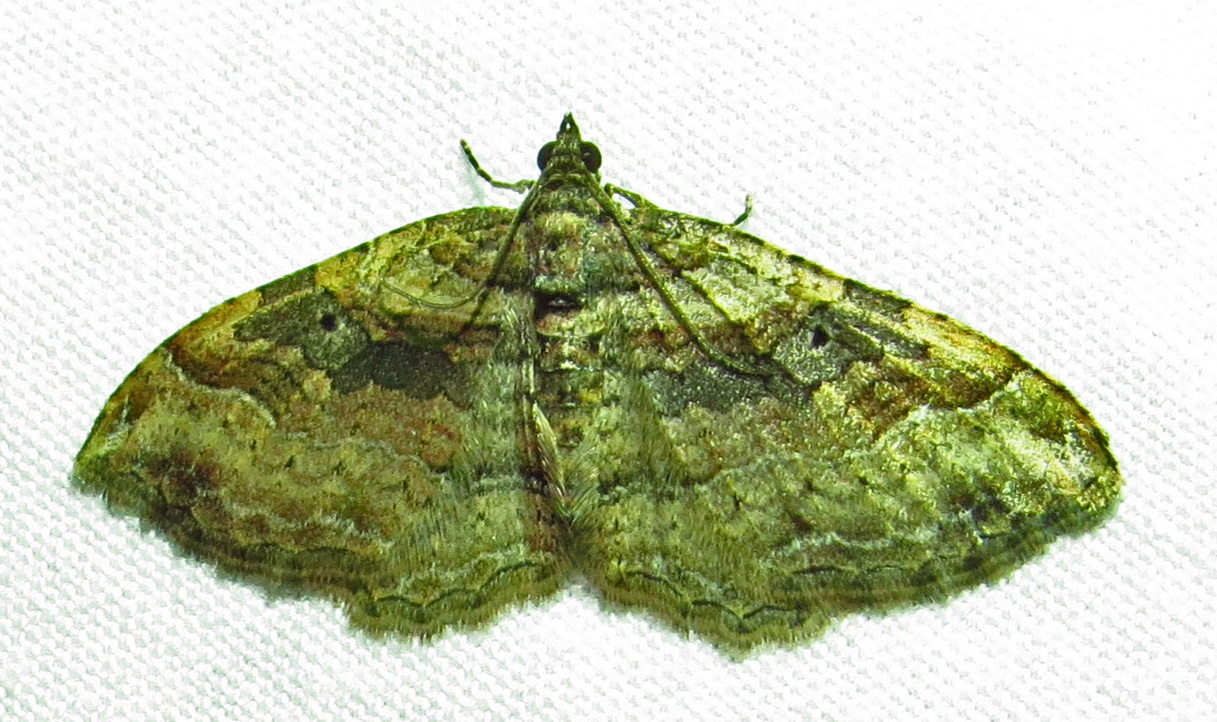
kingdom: Animalia
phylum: Arthropoda
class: Insecta
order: Lepidoptera
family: Geometridae
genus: Costaconvexa
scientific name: Costaconvexa centrostrigaria
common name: Bent-line carpet
